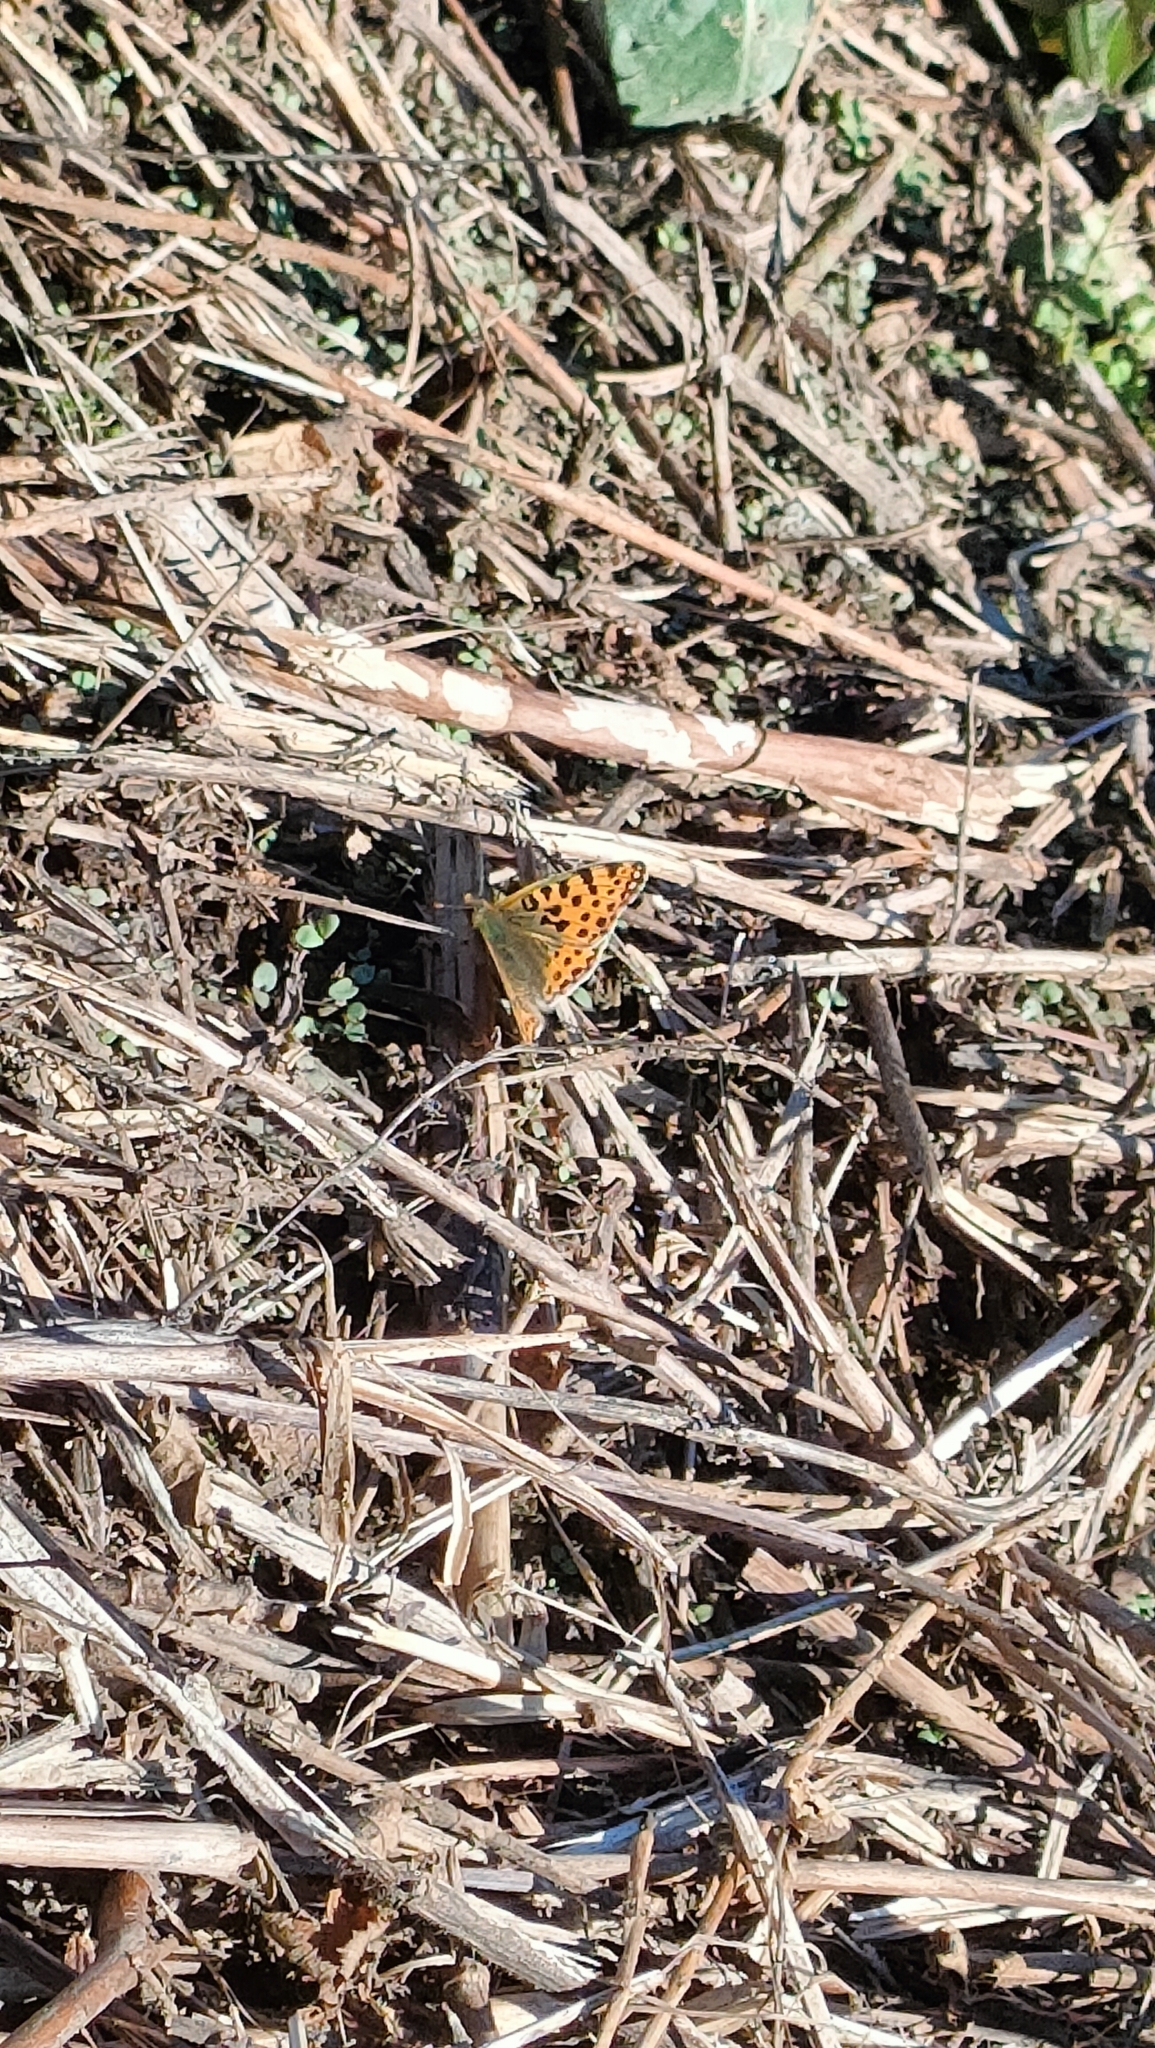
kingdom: Animalia
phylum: Arthropoda
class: Insecta
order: Lepidoptera
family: Nymphalidae
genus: Issoria
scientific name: Issoria lathonia
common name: Queen of spain fritillary
